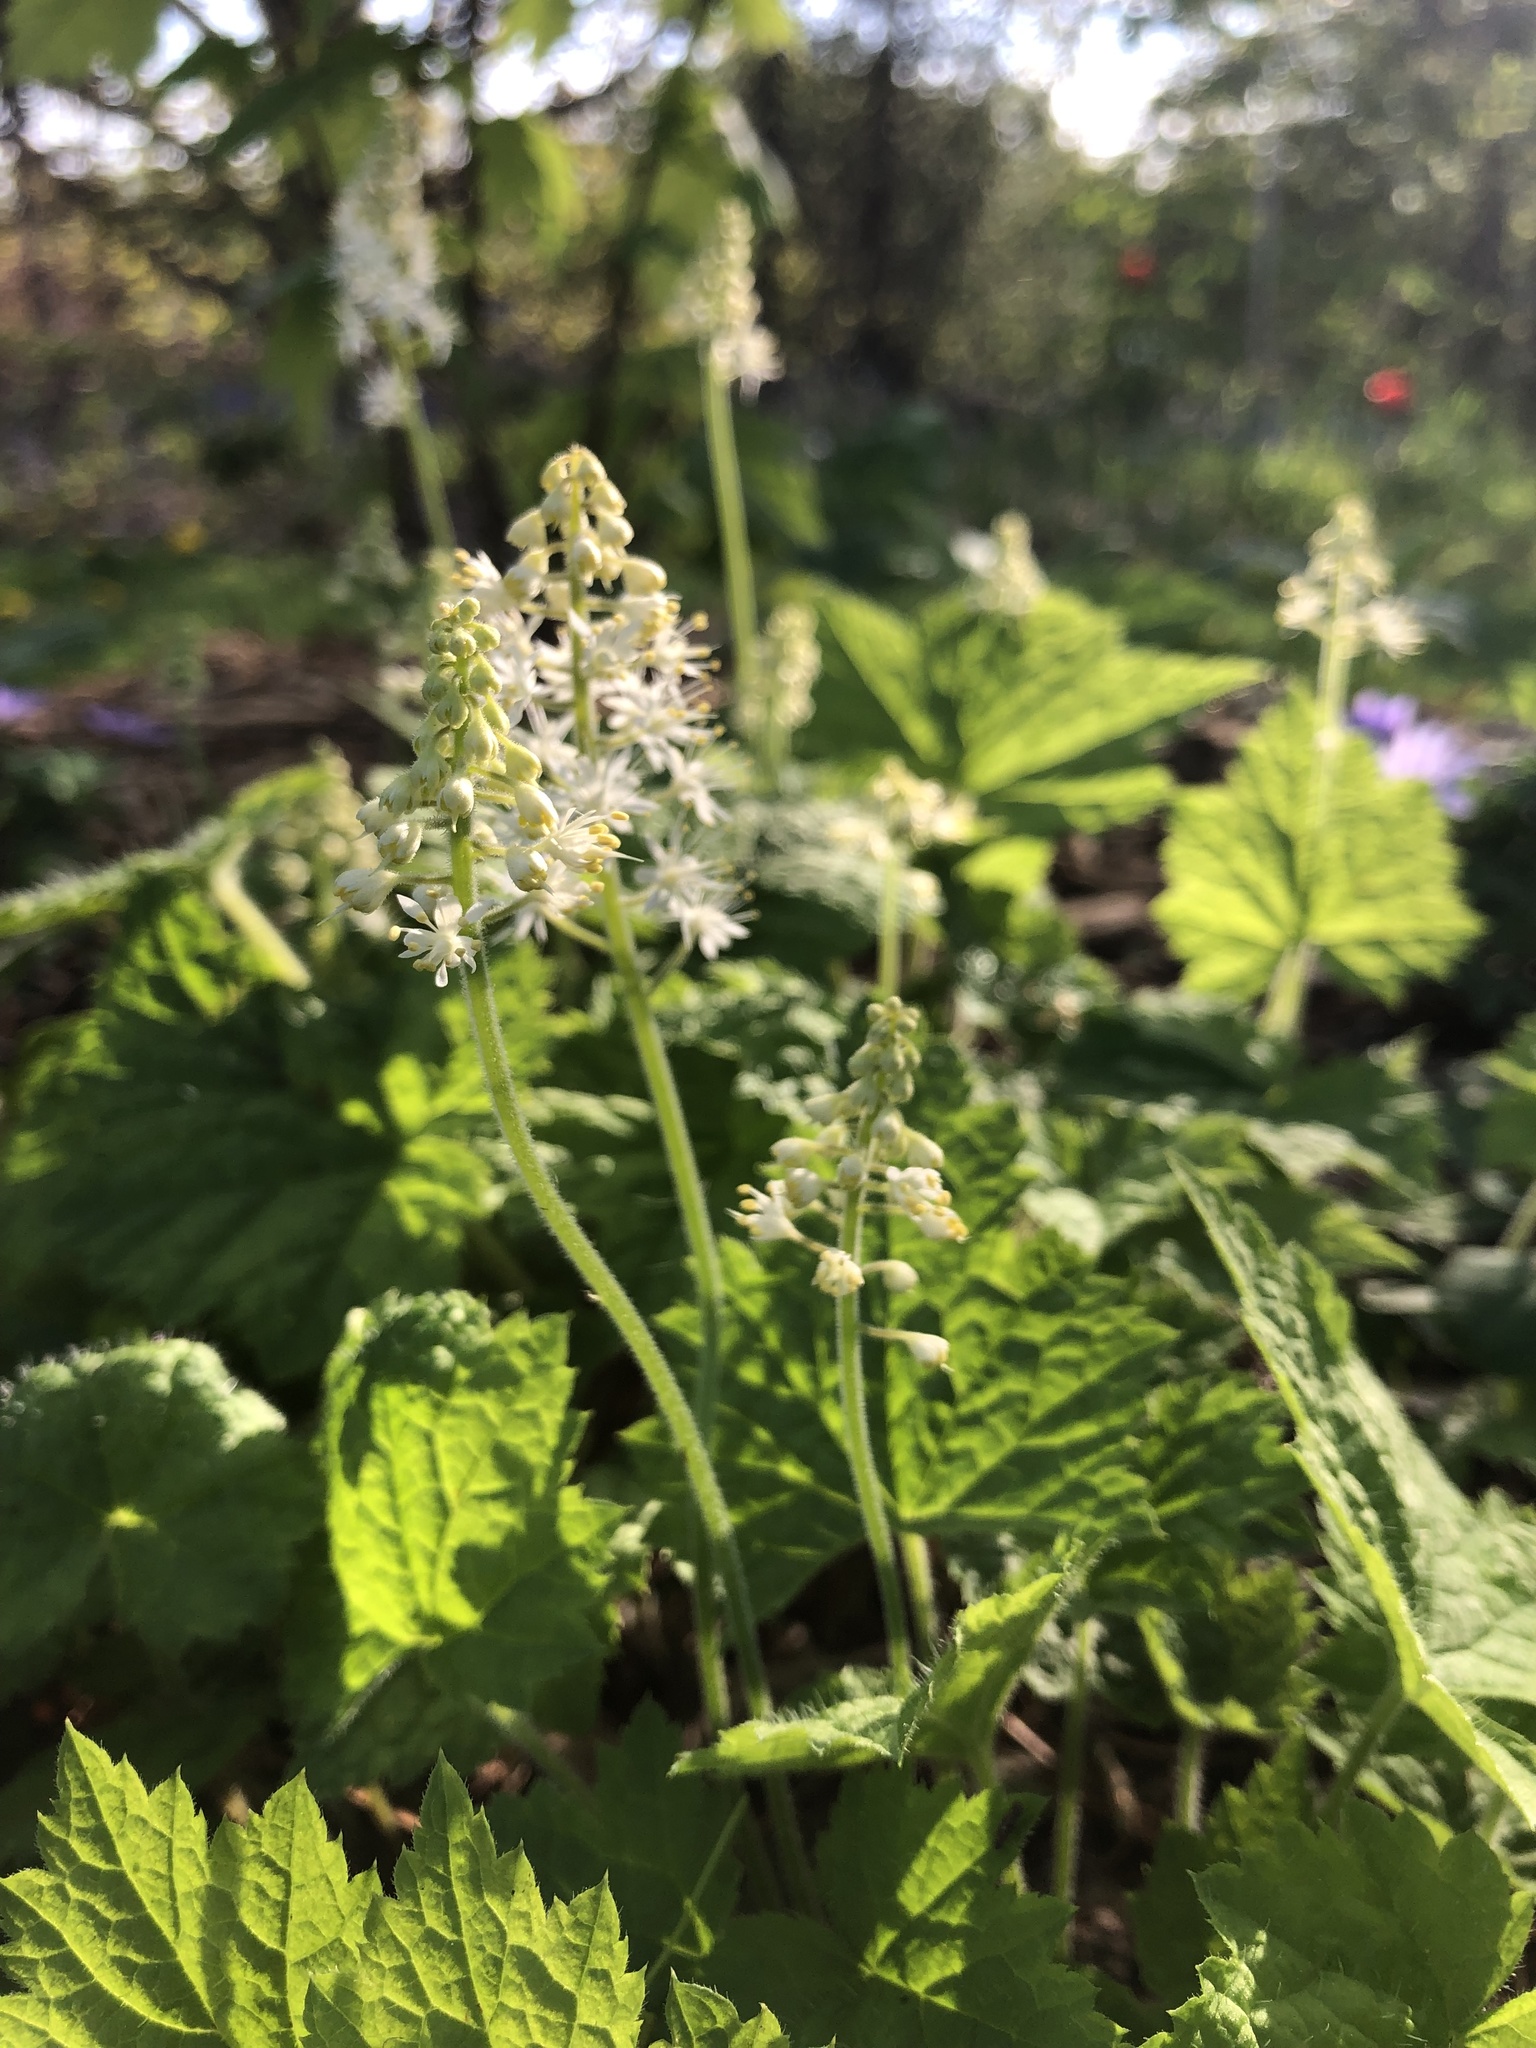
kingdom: Plantae
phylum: Tracheophyta
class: Magnoliopsida
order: Saxifragales
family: Saxifragaceae
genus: Tiarella
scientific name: Tiarella stolonifera
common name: Stoloniferous foamflower
